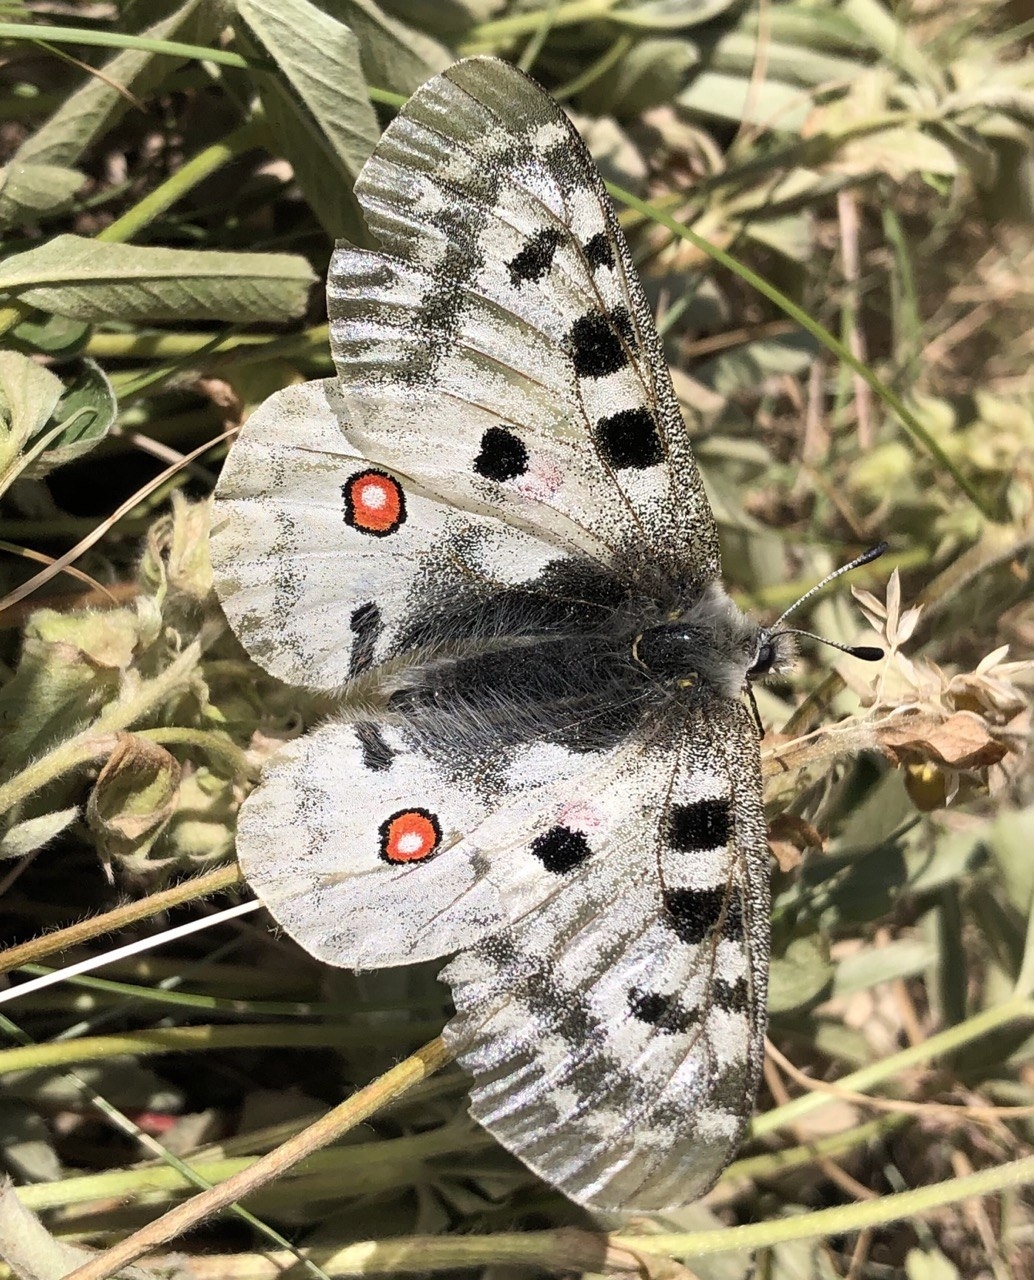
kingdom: Animalia
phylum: Arthropoda
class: Insecta
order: Lepidoptera
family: Papilionidae
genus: Parnassius
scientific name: Parnassius apollo
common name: Apollo
